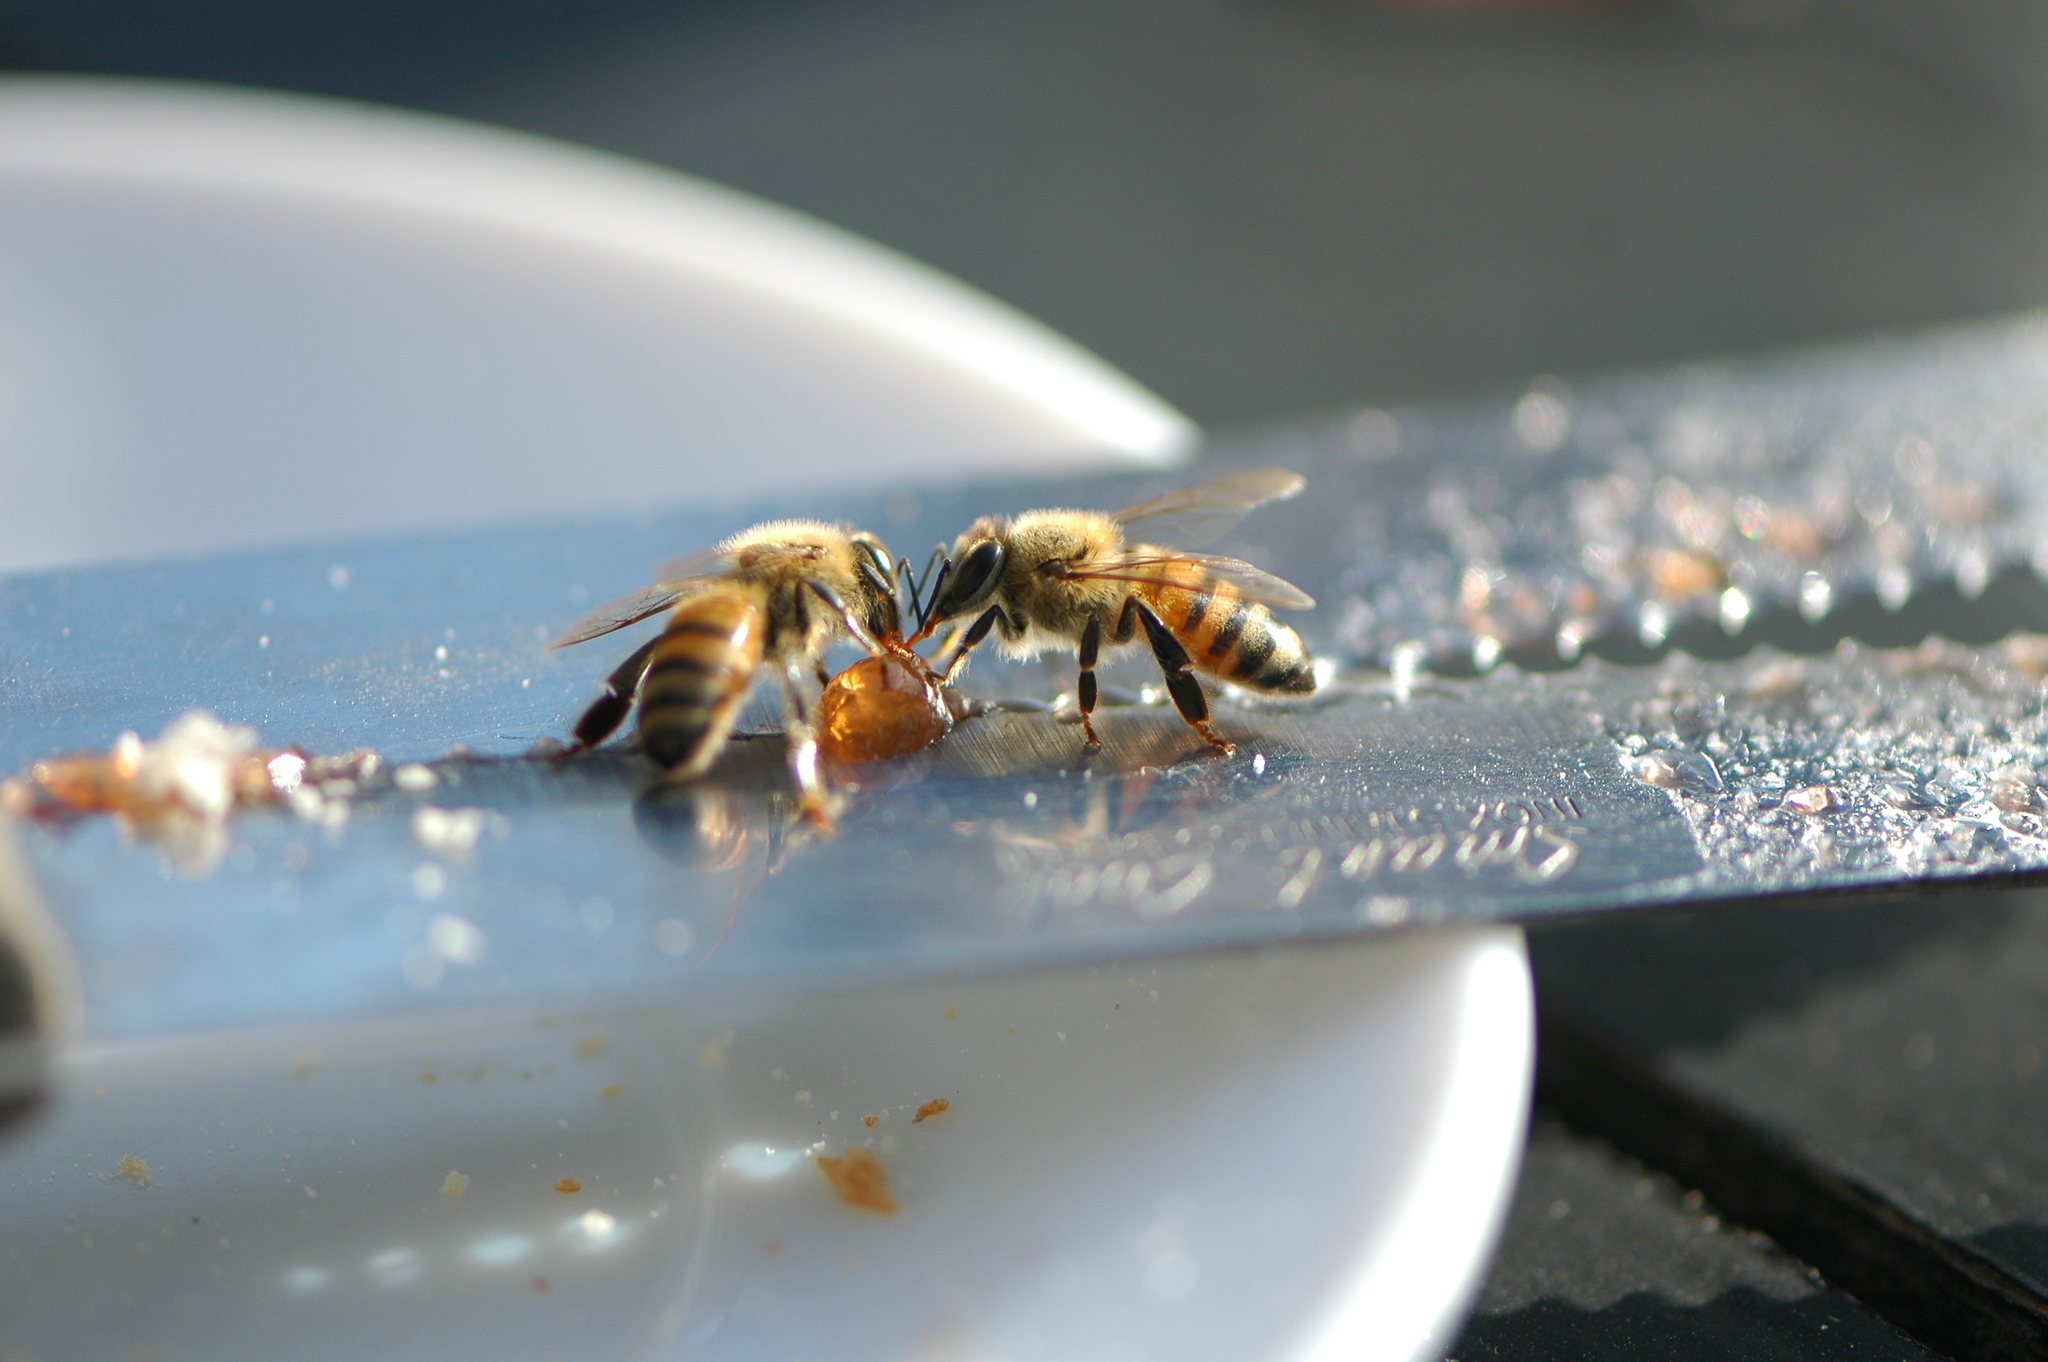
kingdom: Animalia
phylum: Arthropoda
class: Insecta
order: Hymenoptera
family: Apidae
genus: Apis
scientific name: Apis mellifera
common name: Honey bee
